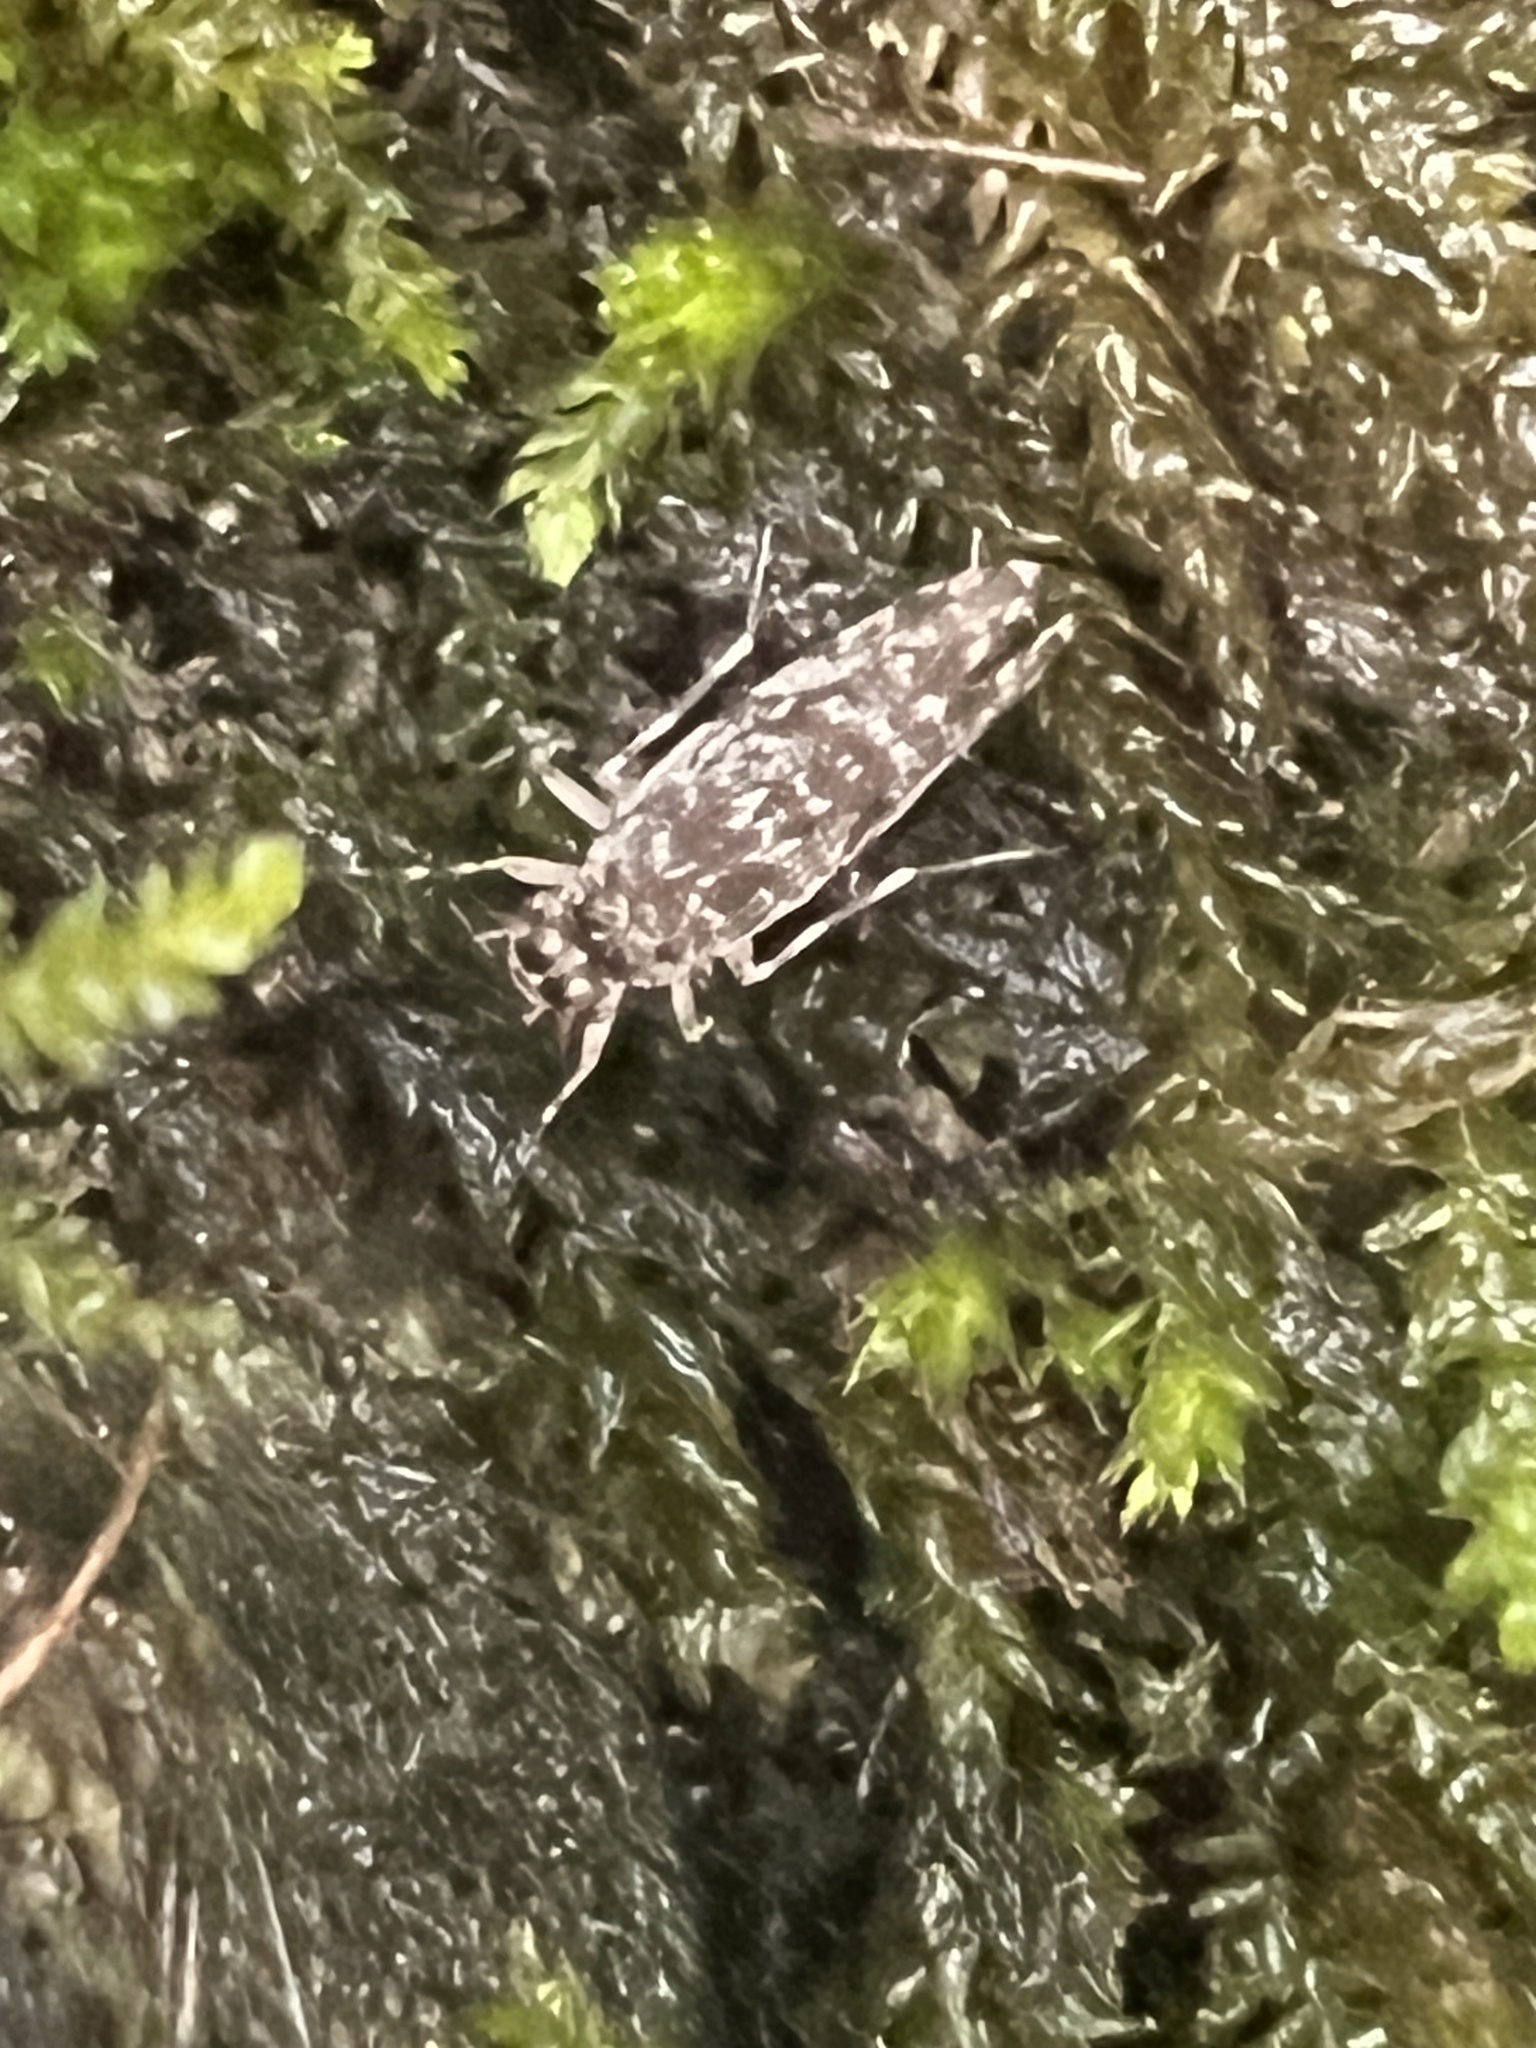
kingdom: Animalia
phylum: Arthropoda
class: Insecta
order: Psocodea
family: Amphientomidae
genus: Stimulopalpus
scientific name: Stimulopalpus japonicus
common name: Tropical bark louse
